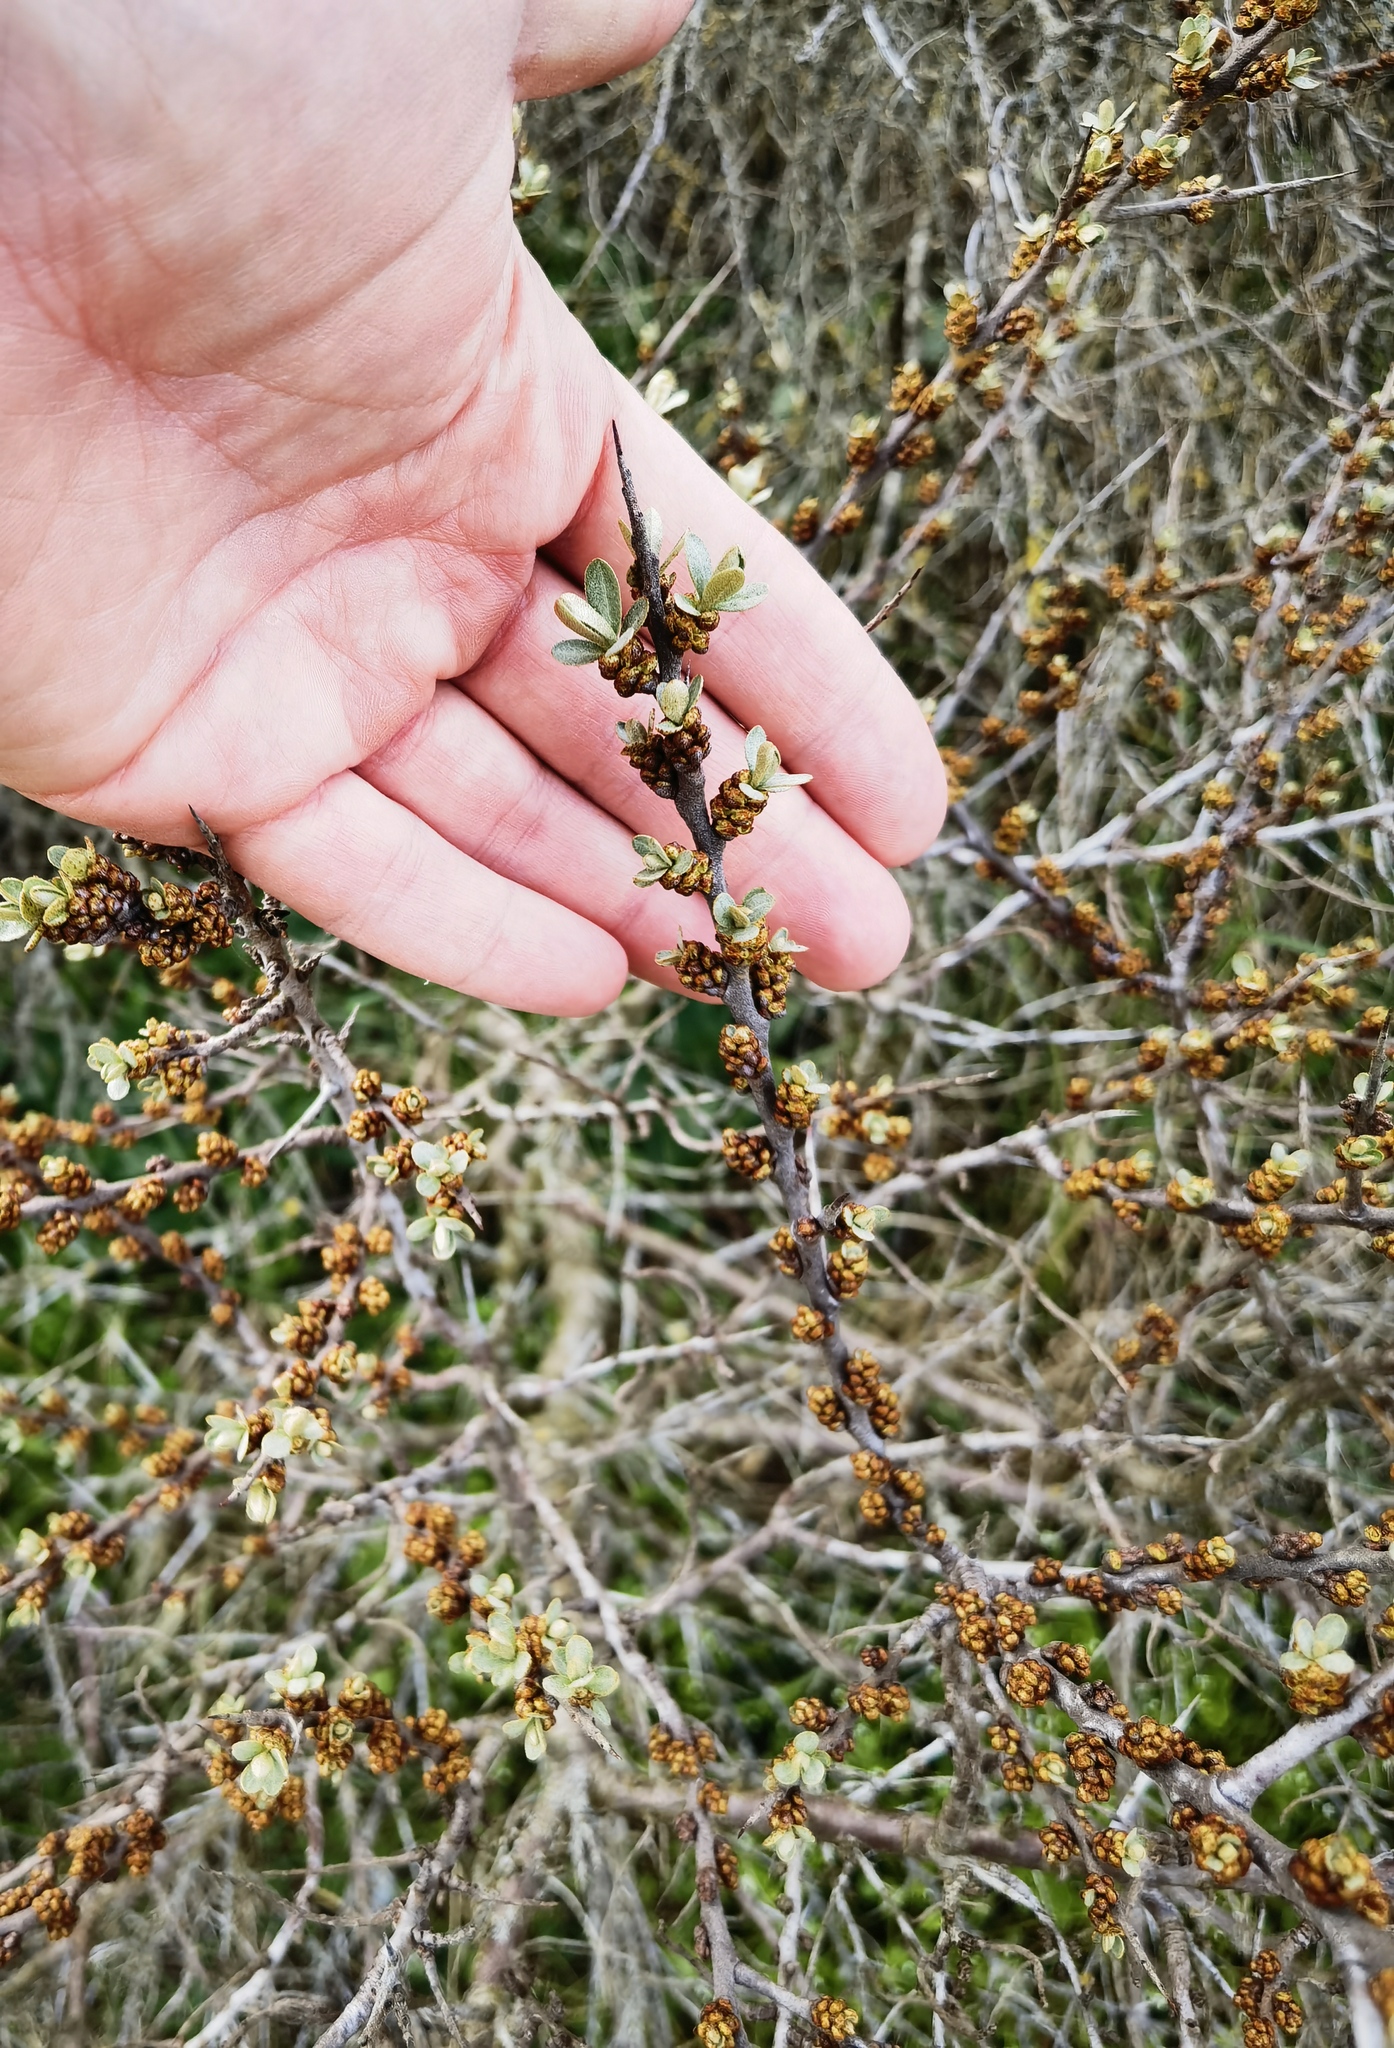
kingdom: Plantae
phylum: Tracheophyta
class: Magnoliopsida
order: Rosales
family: Elaeagnaceae
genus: Hippophae
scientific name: Hippophae rhamnoides
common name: Sea-buckthorn
